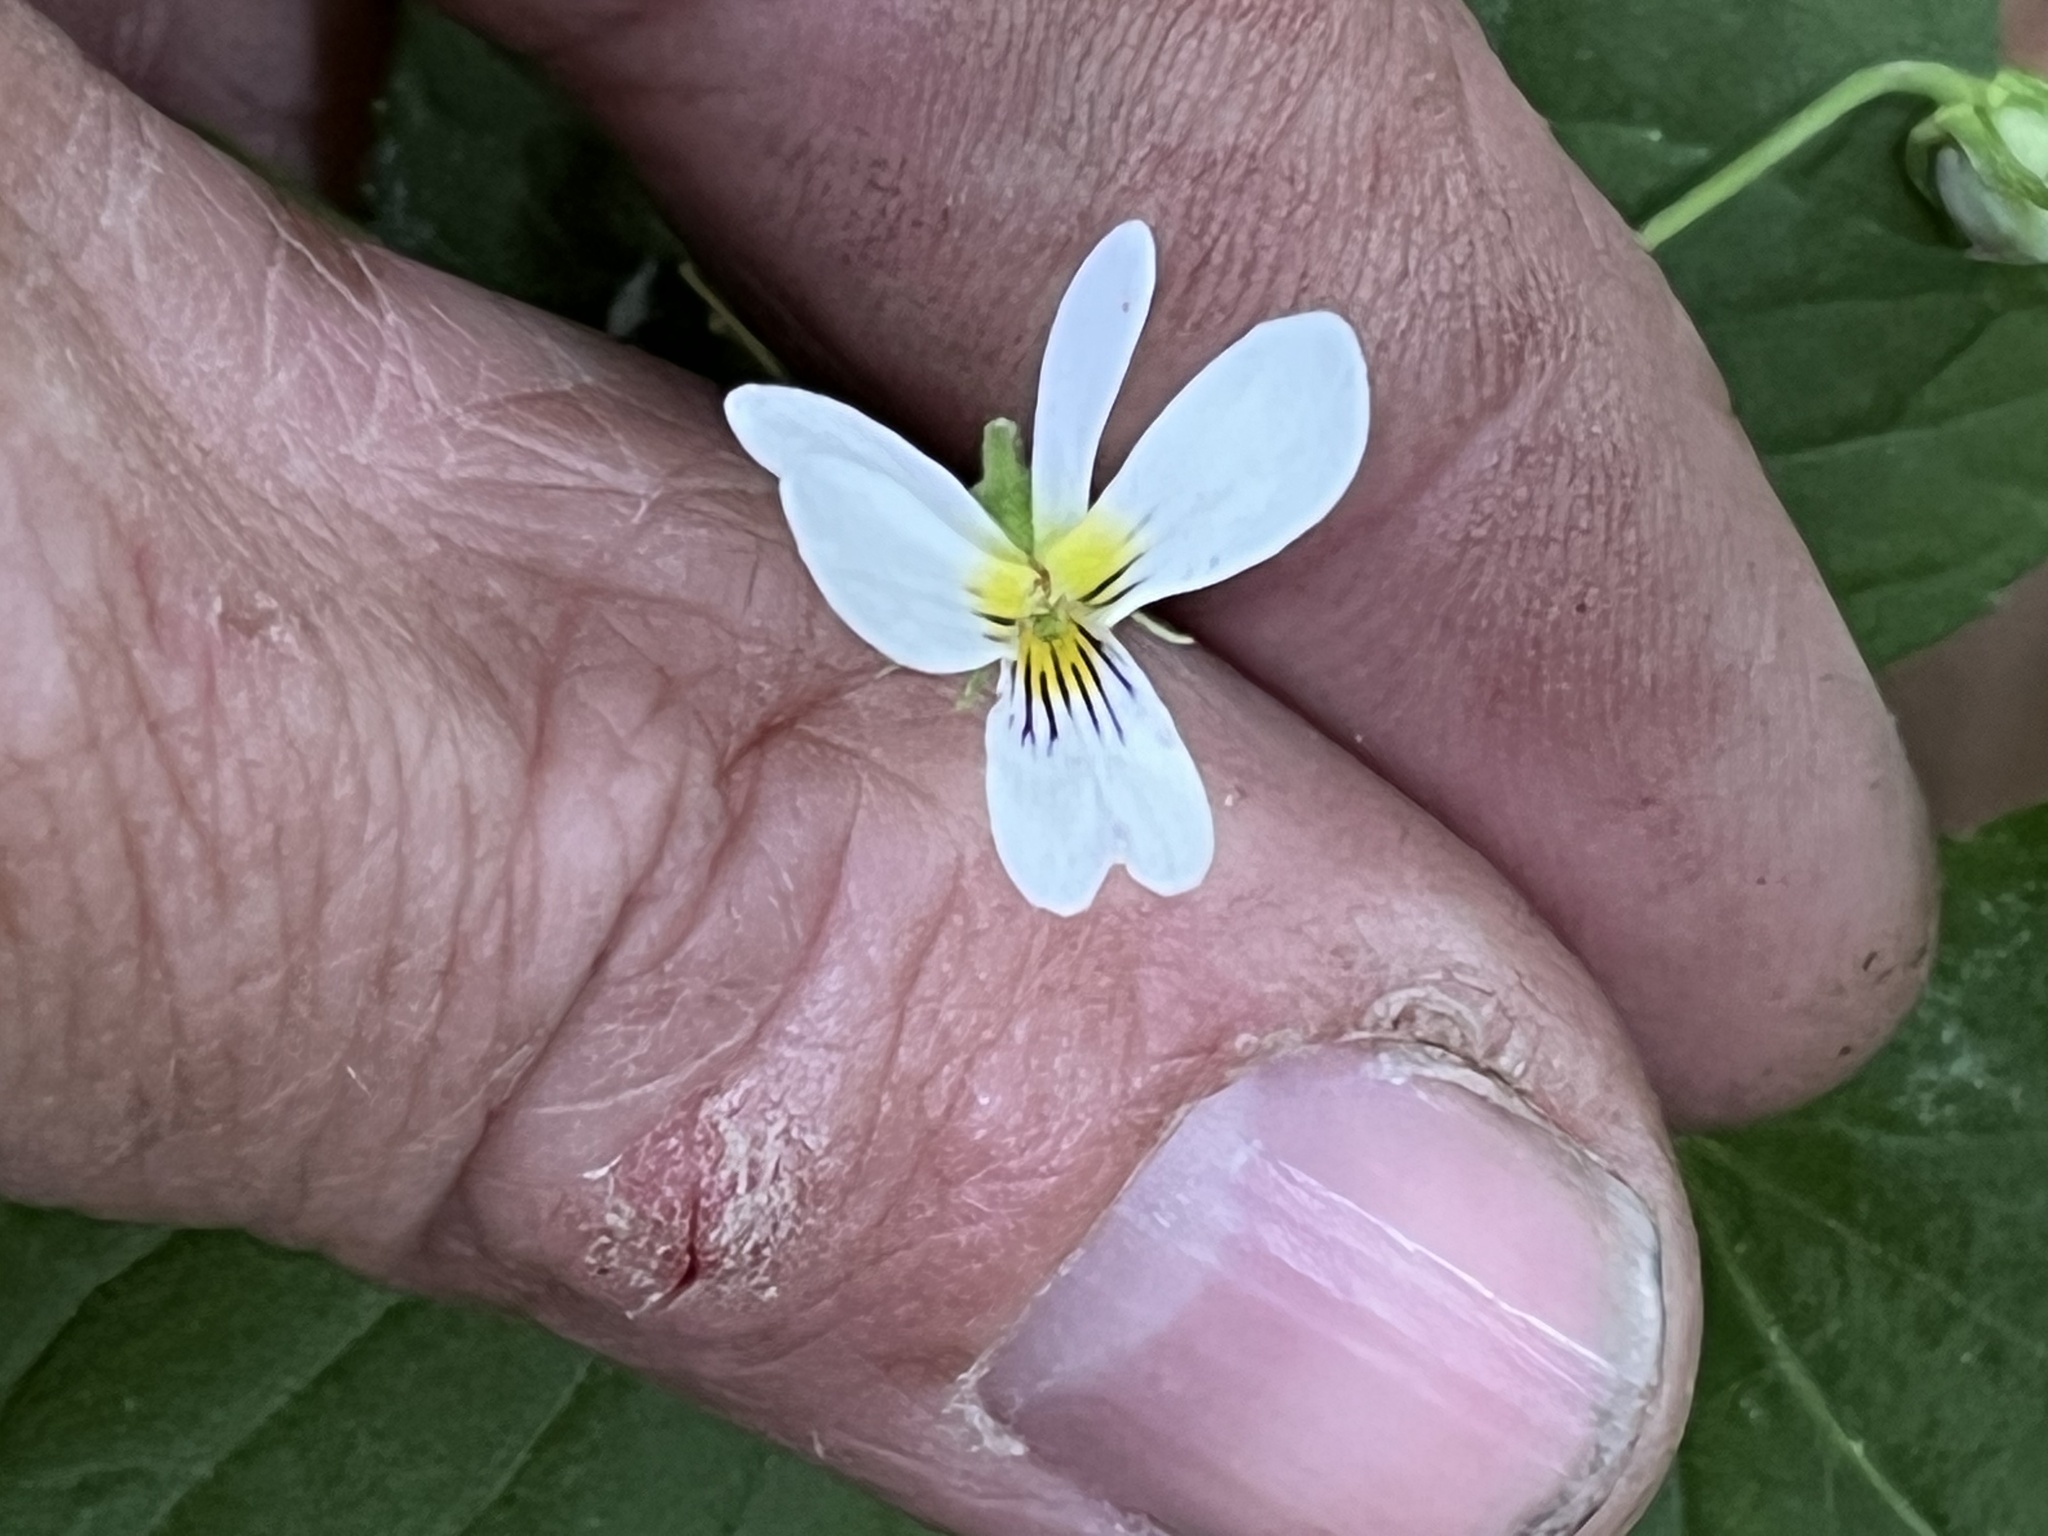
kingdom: Plantae
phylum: Tracheophyta
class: Magnoliopsida
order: Malpighiales
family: Violaceae
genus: Viola
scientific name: Viola canadensis
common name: Canada violet
